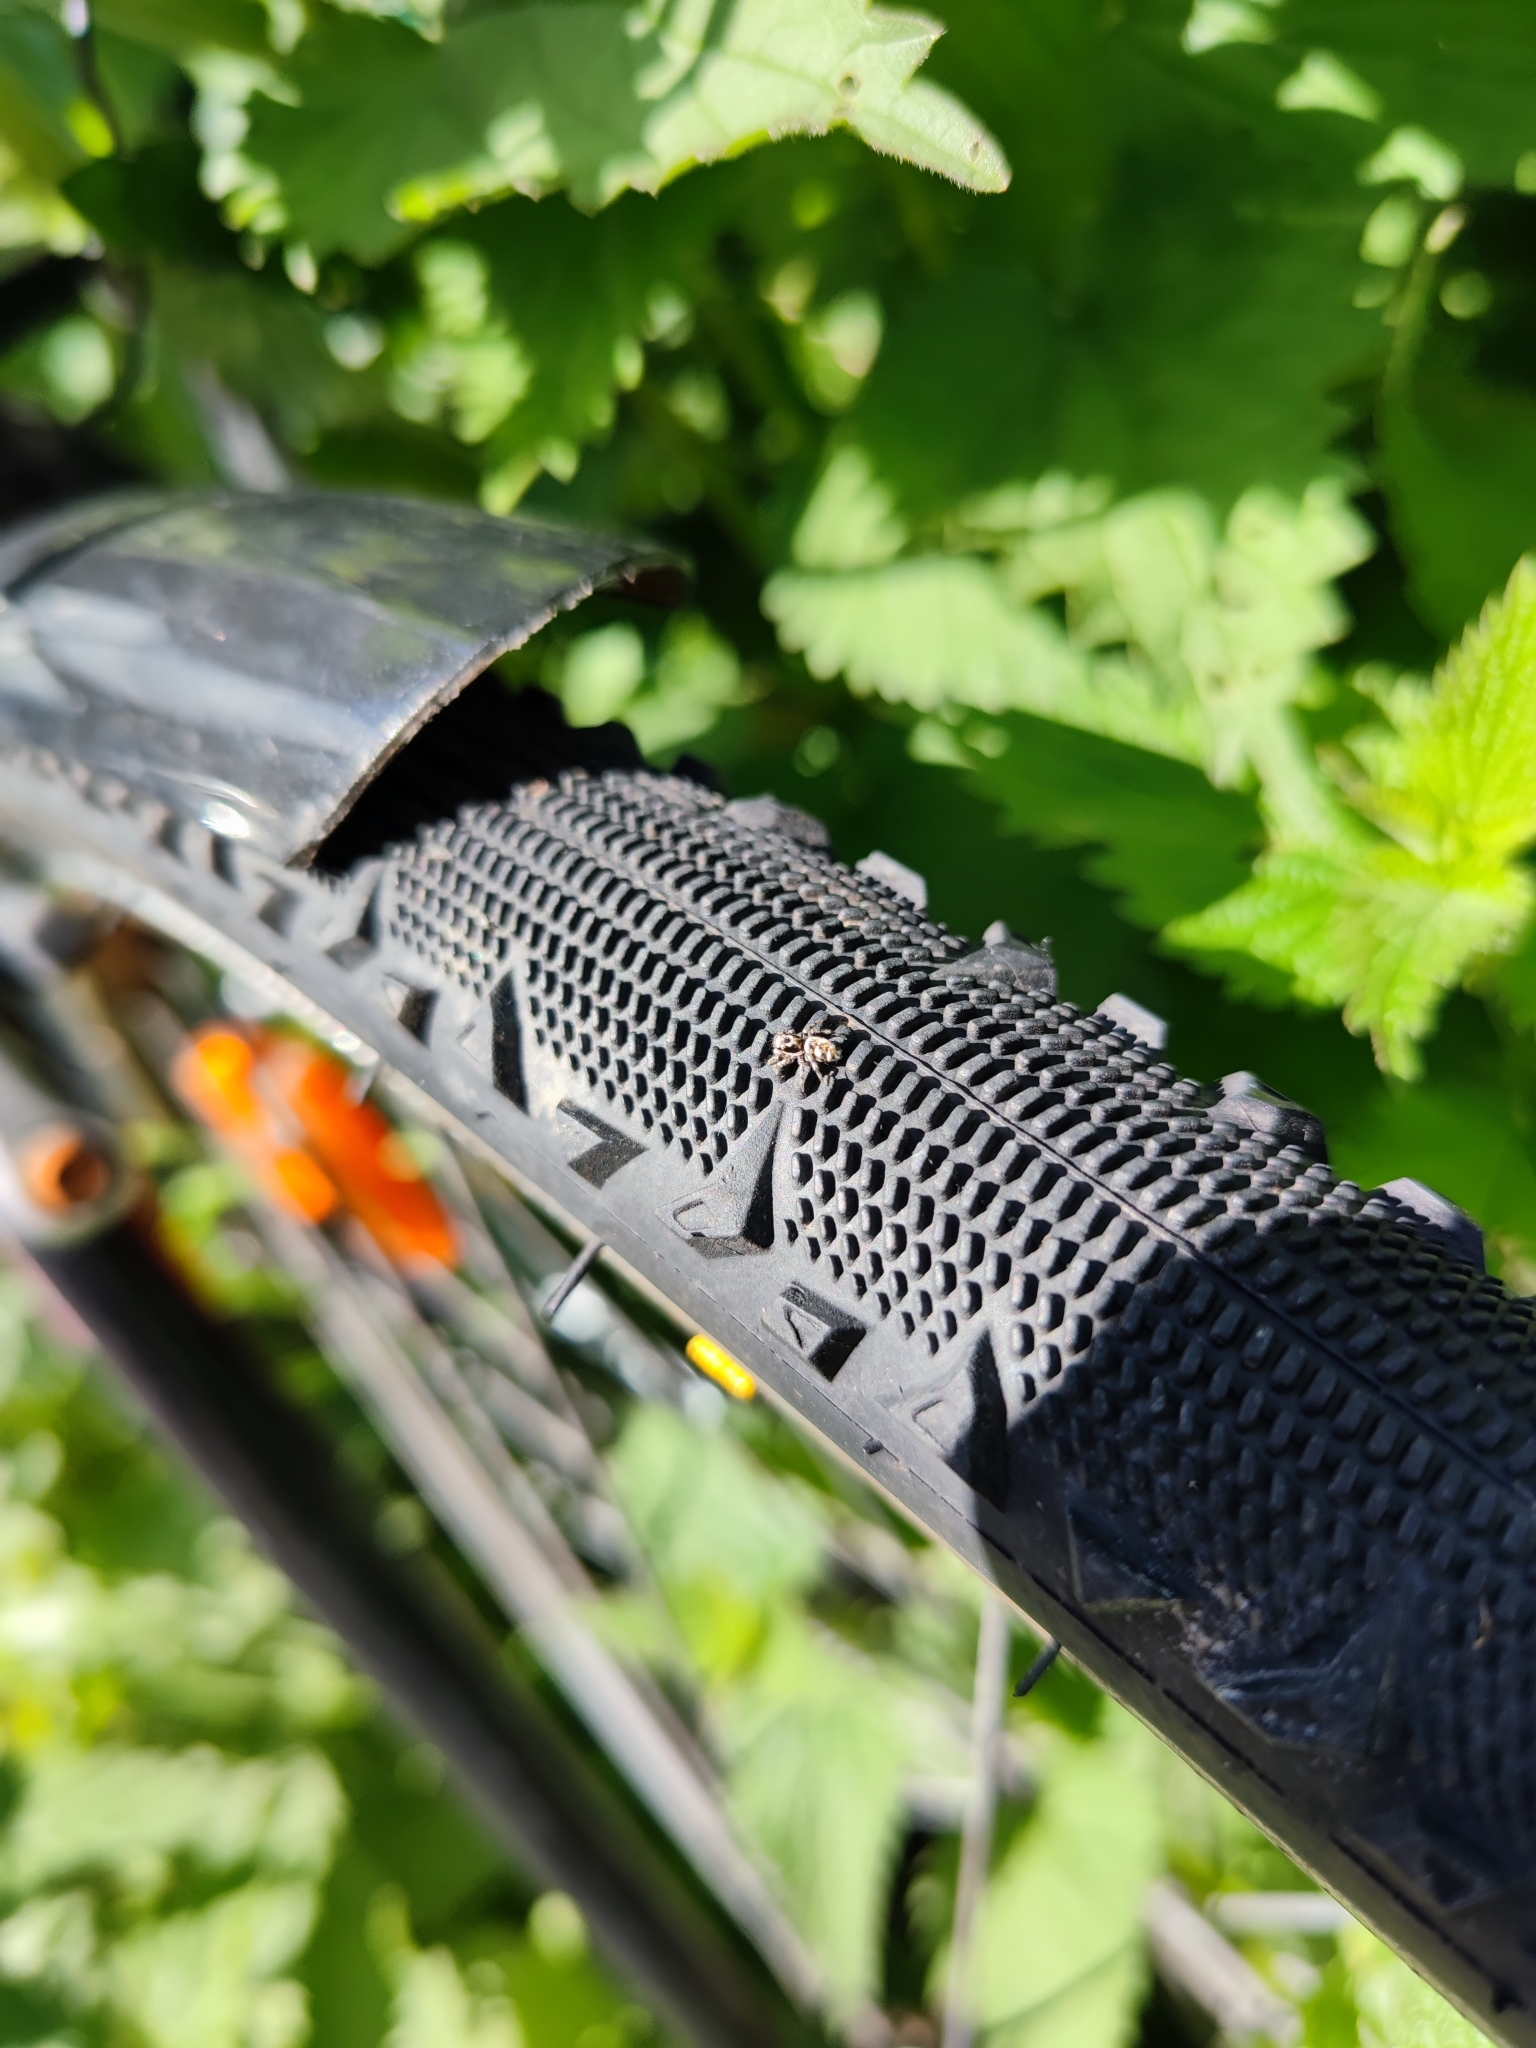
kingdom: Animalia
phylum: Arthropoda
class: Arachnida
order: Araneae
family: Salticidae
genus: Salticus
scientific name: Salticus scenicus
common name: Zebra jumper
